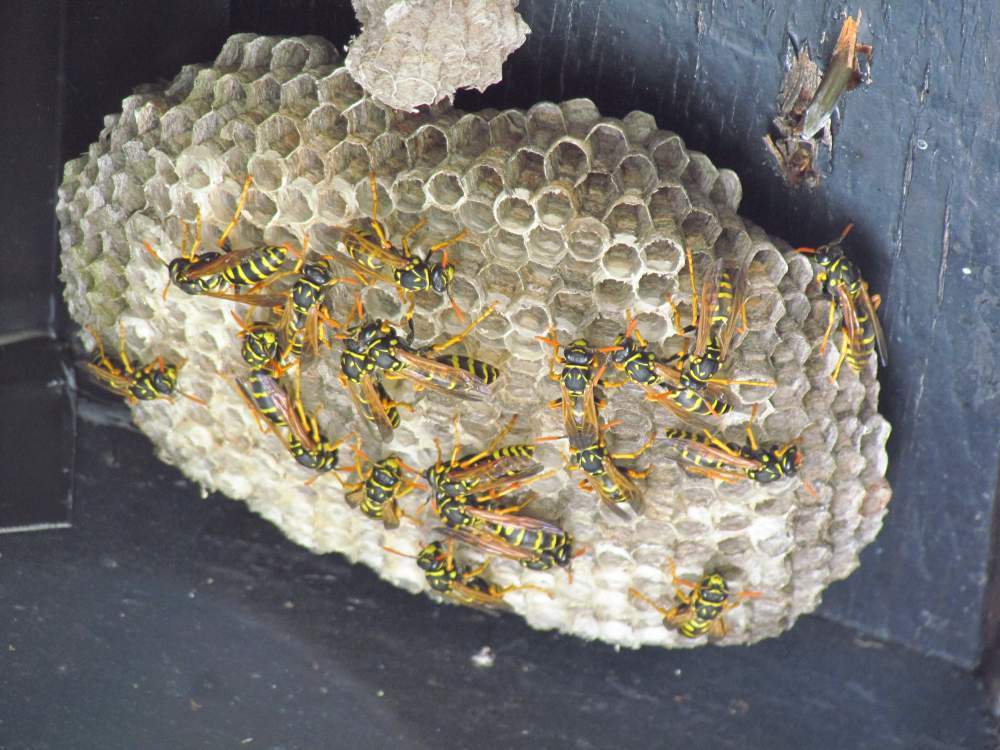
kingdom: Animalia
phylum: Arthropoda
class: Insecta
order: Hymenoptera
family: Eumenidae
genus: Polistes
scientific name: Polistes dominula
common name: Paper wasp
